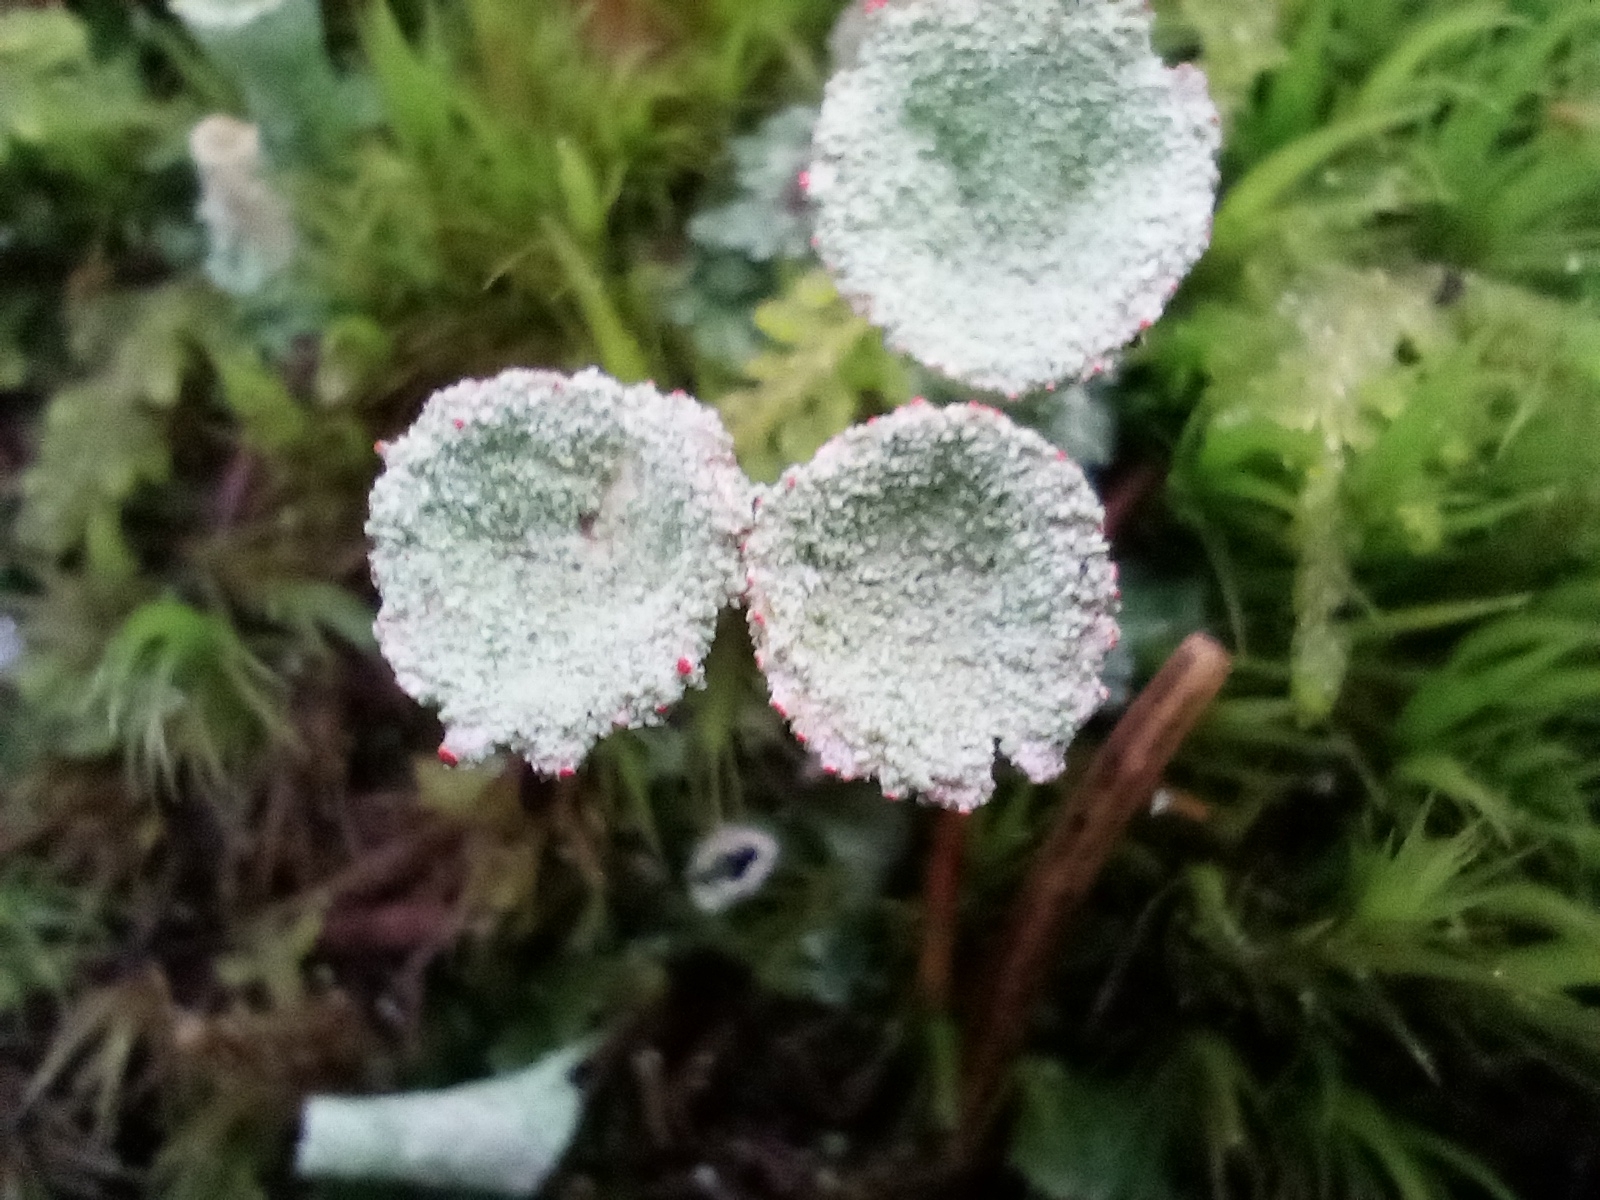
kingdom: Fungi
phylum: Ascomycota
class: Lecanoromycetes
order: Lecanorales
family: Cladoniaceae
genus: Cladonia
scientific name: Cladonia
